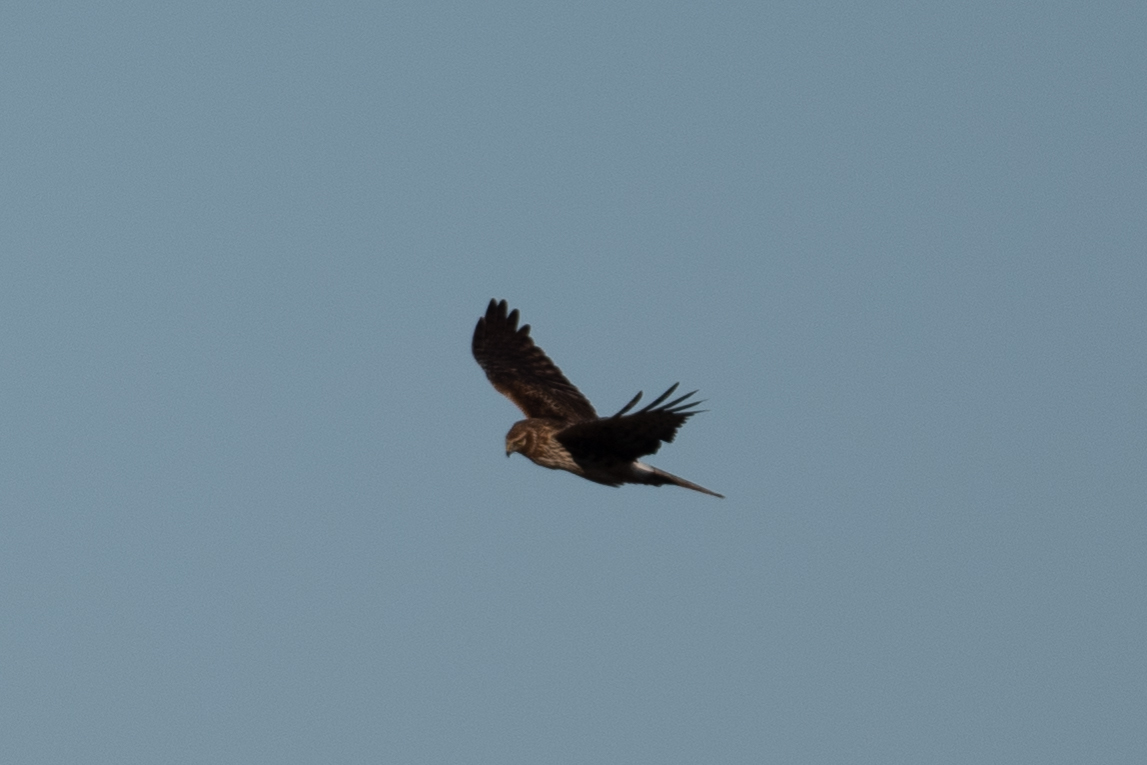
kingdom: Animalia
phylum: Chordata
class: Aves
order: Accipitriformes
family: Accipitridae
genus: Circus
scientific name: Circus cyaneus
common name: Hen harrier
